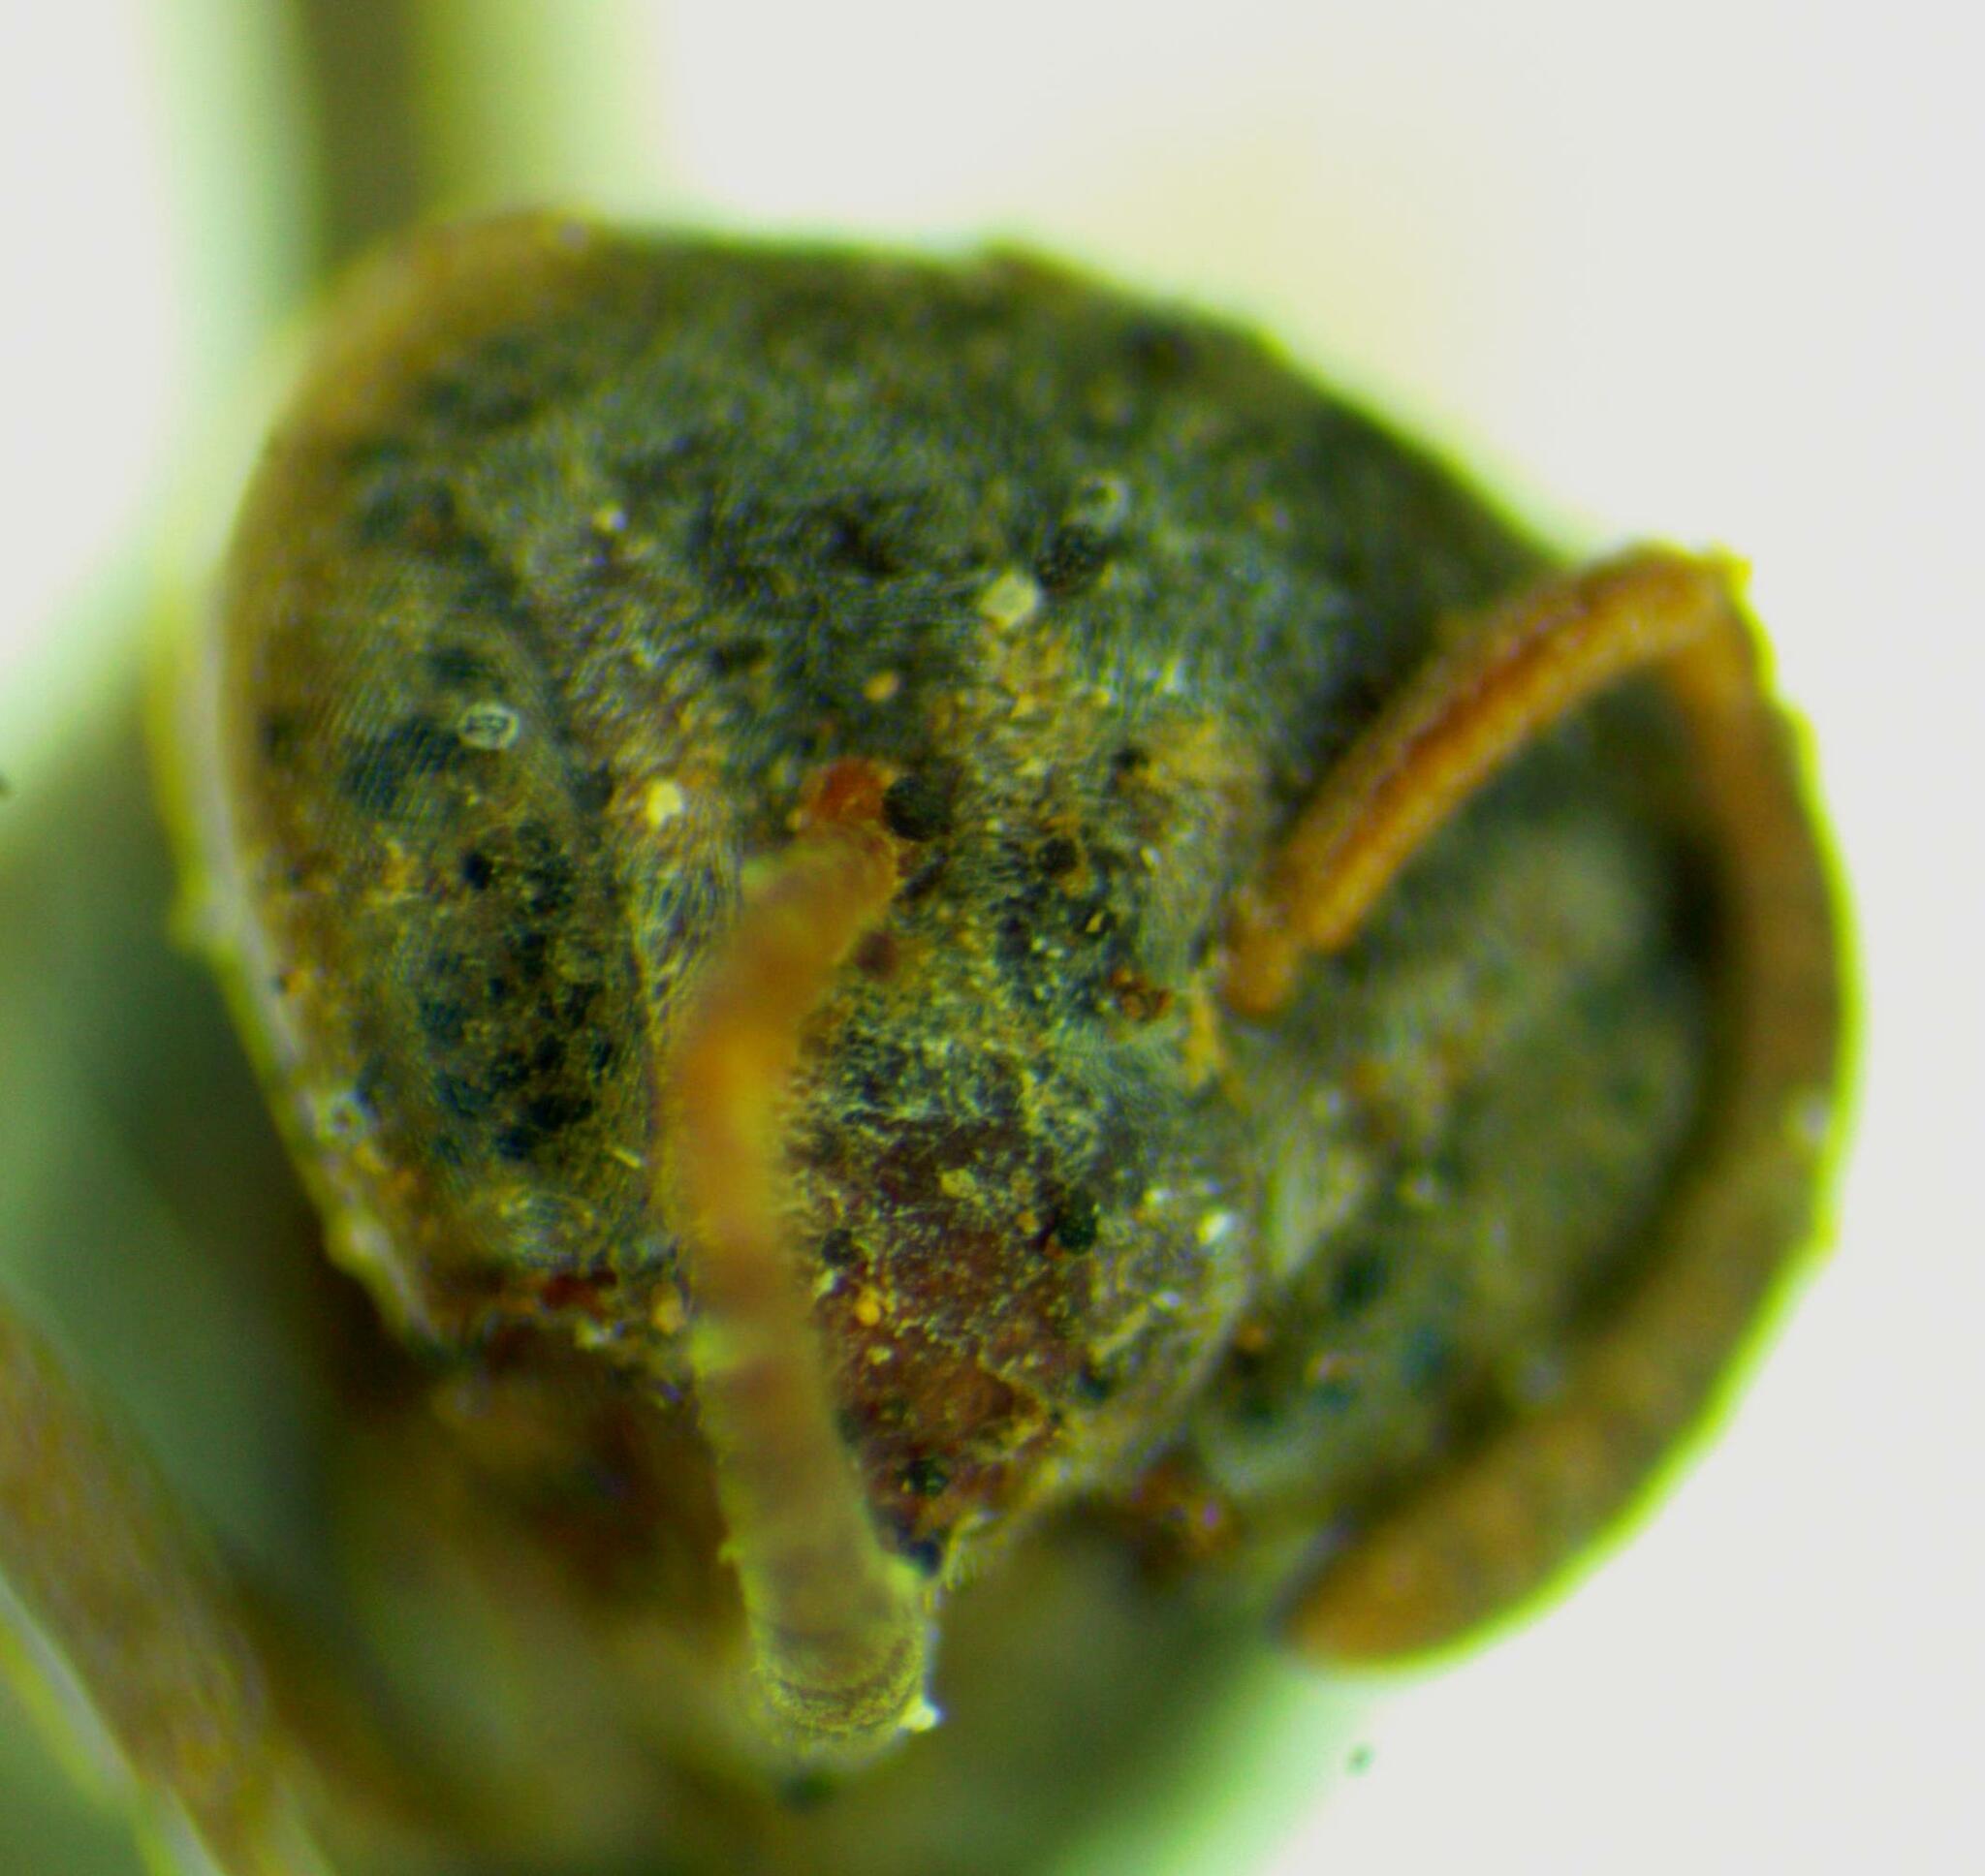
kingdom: Animalia
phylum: Arthropoda
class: Insecta
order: Hymenoptera
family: Vespidae
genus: Protopolybia
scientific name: Protopolybia panamensis
